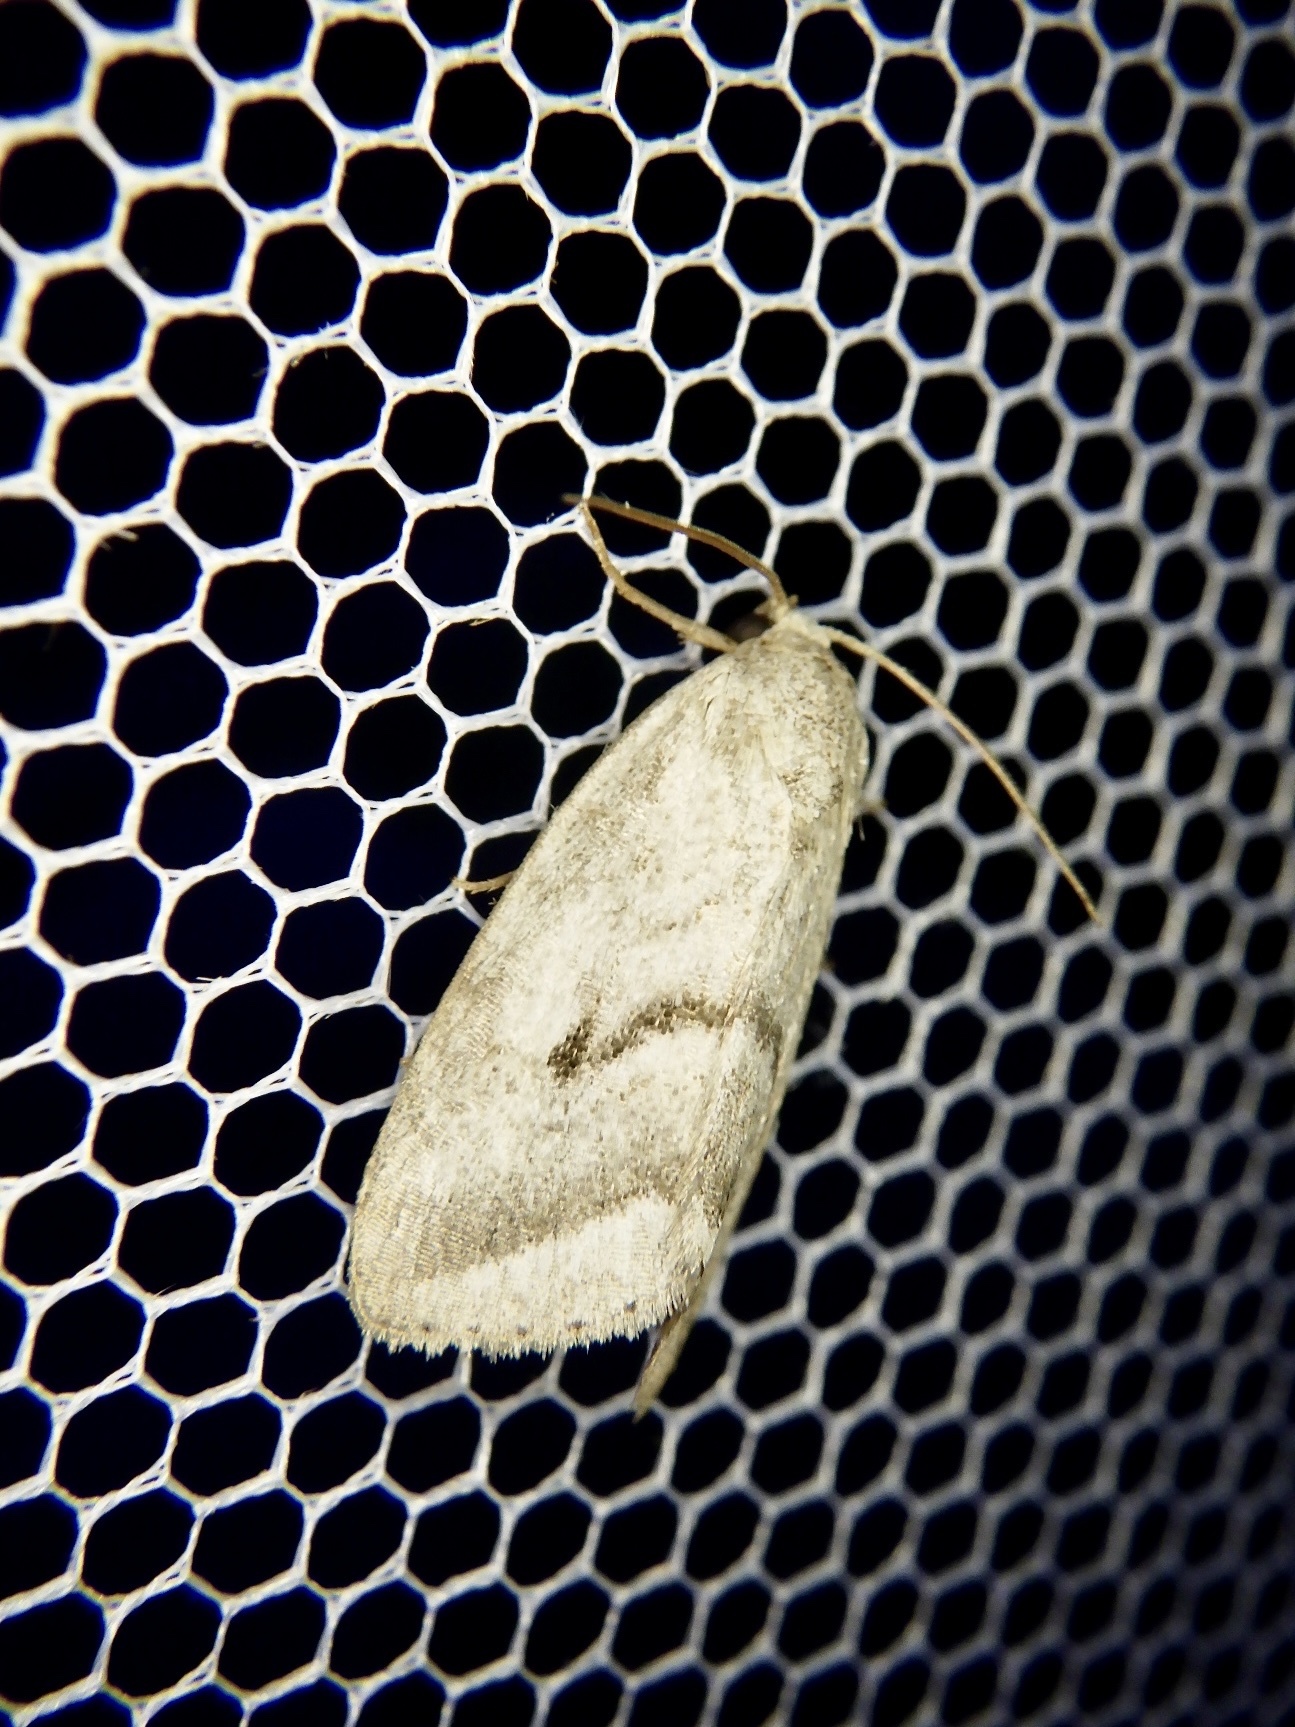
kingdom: Animalia
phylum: Arthropoda
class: Insecta
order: Lepidoptera
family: Noctuidae
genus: Phyllophila
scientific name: Phyllophila obliterata
